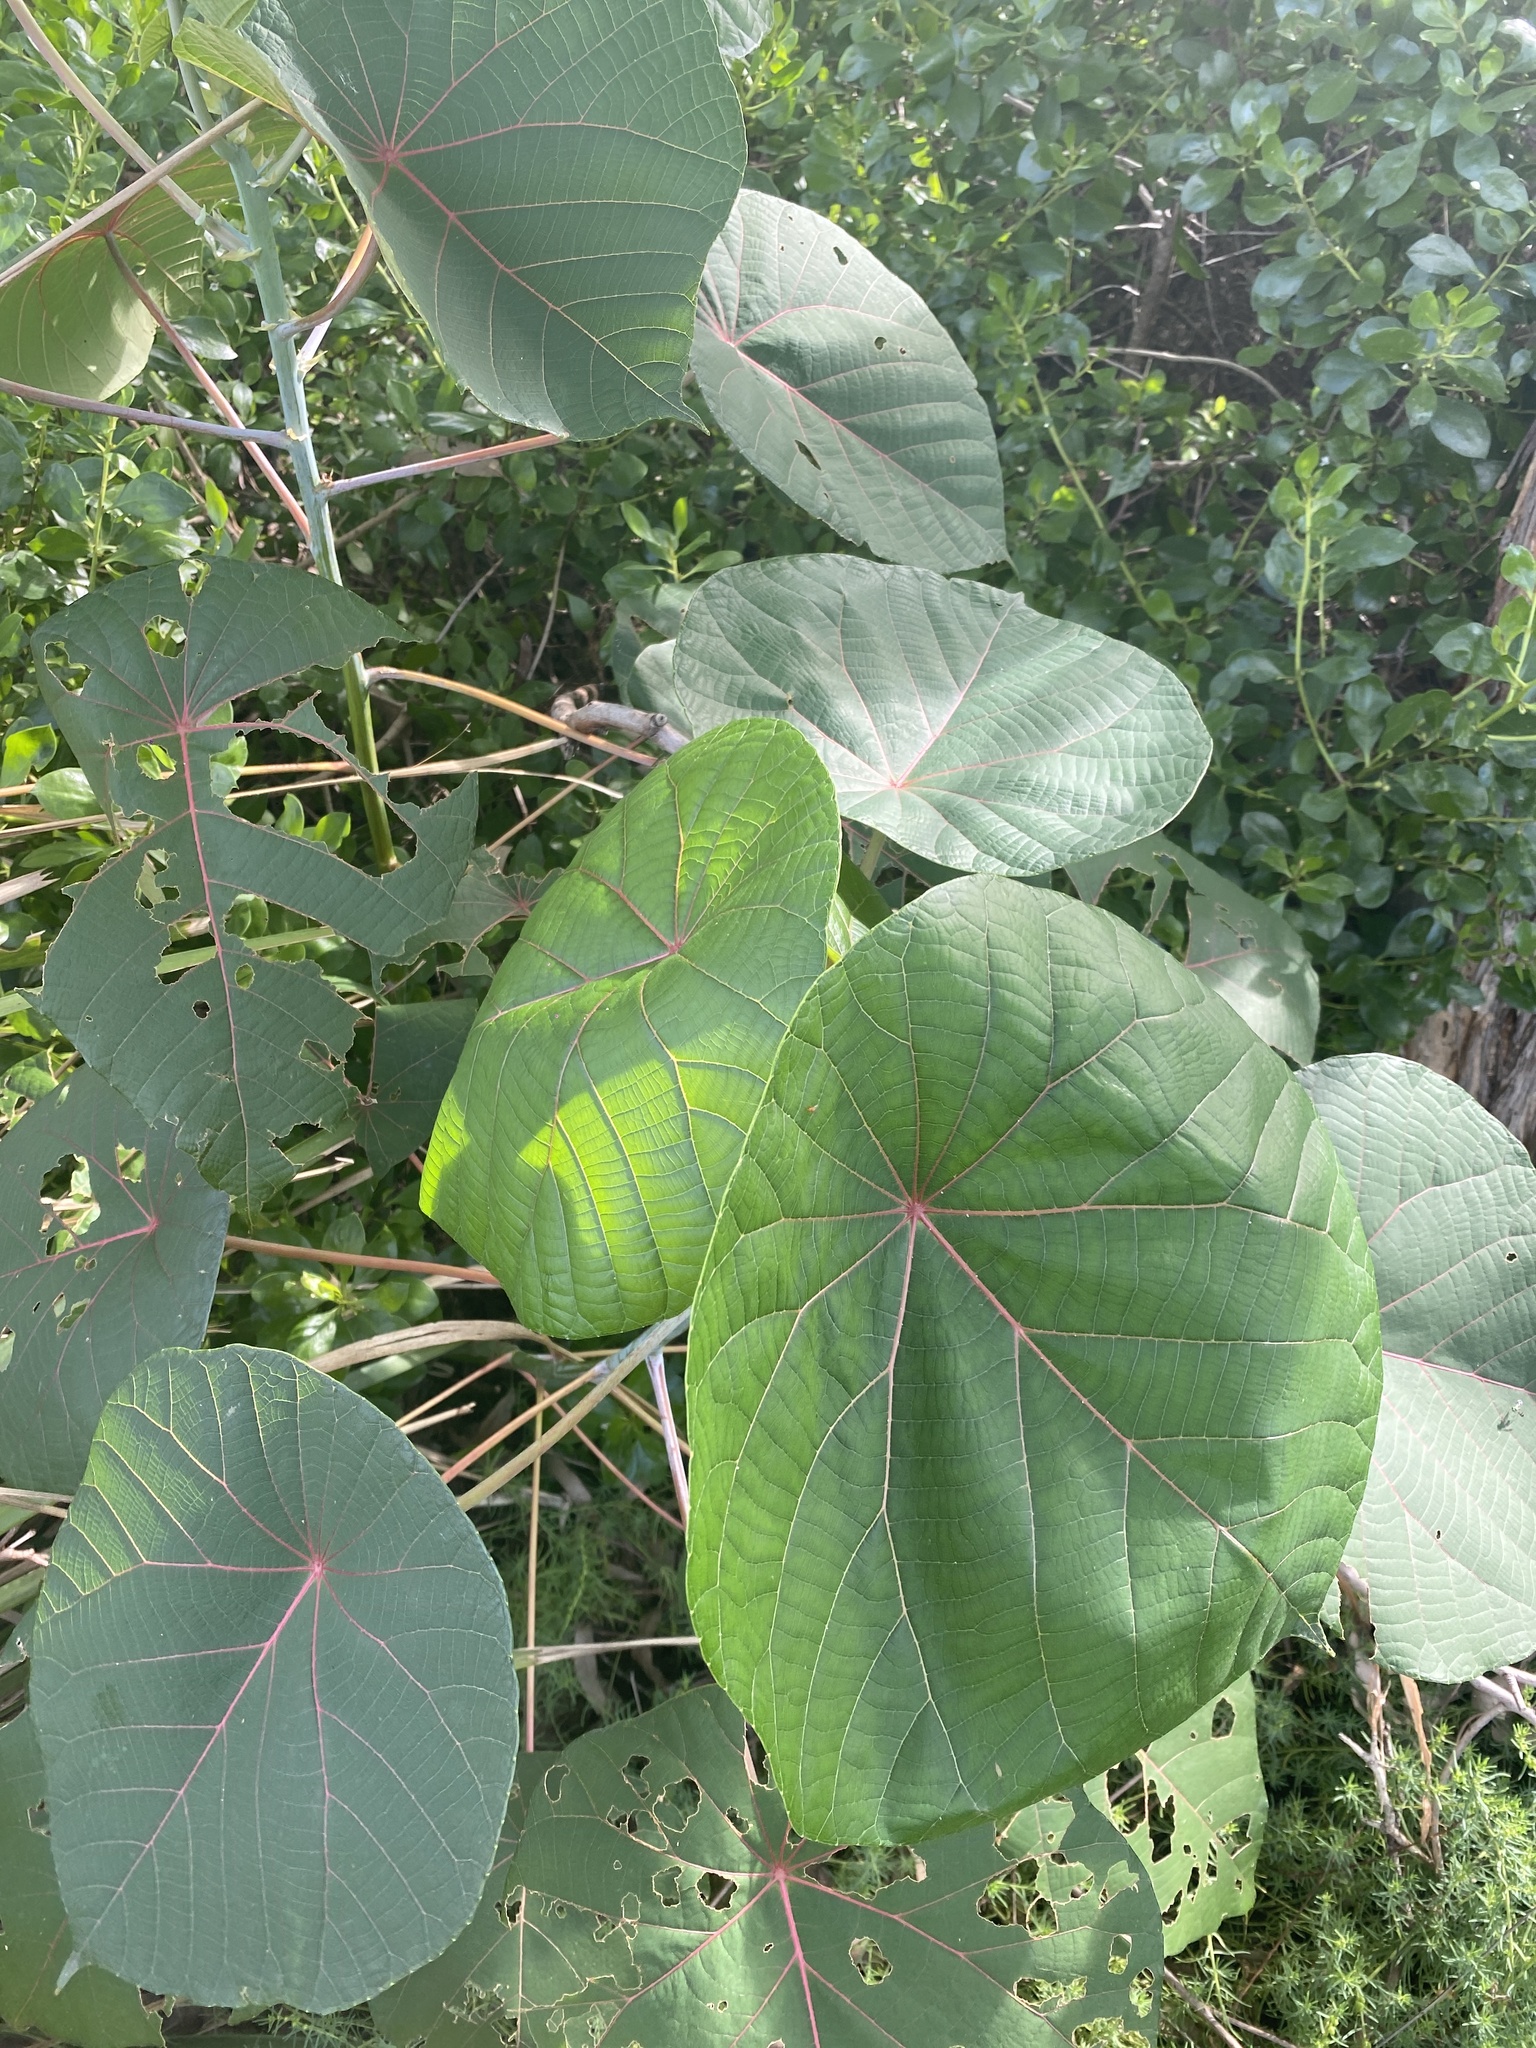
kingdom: Plantae
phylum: Tracheophyta
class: Magnoliopsida
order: Malpighiales
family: Euphorbiaceae
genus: Macaranga
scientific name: Macaranga tanarius
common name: Parasol leaf tree
